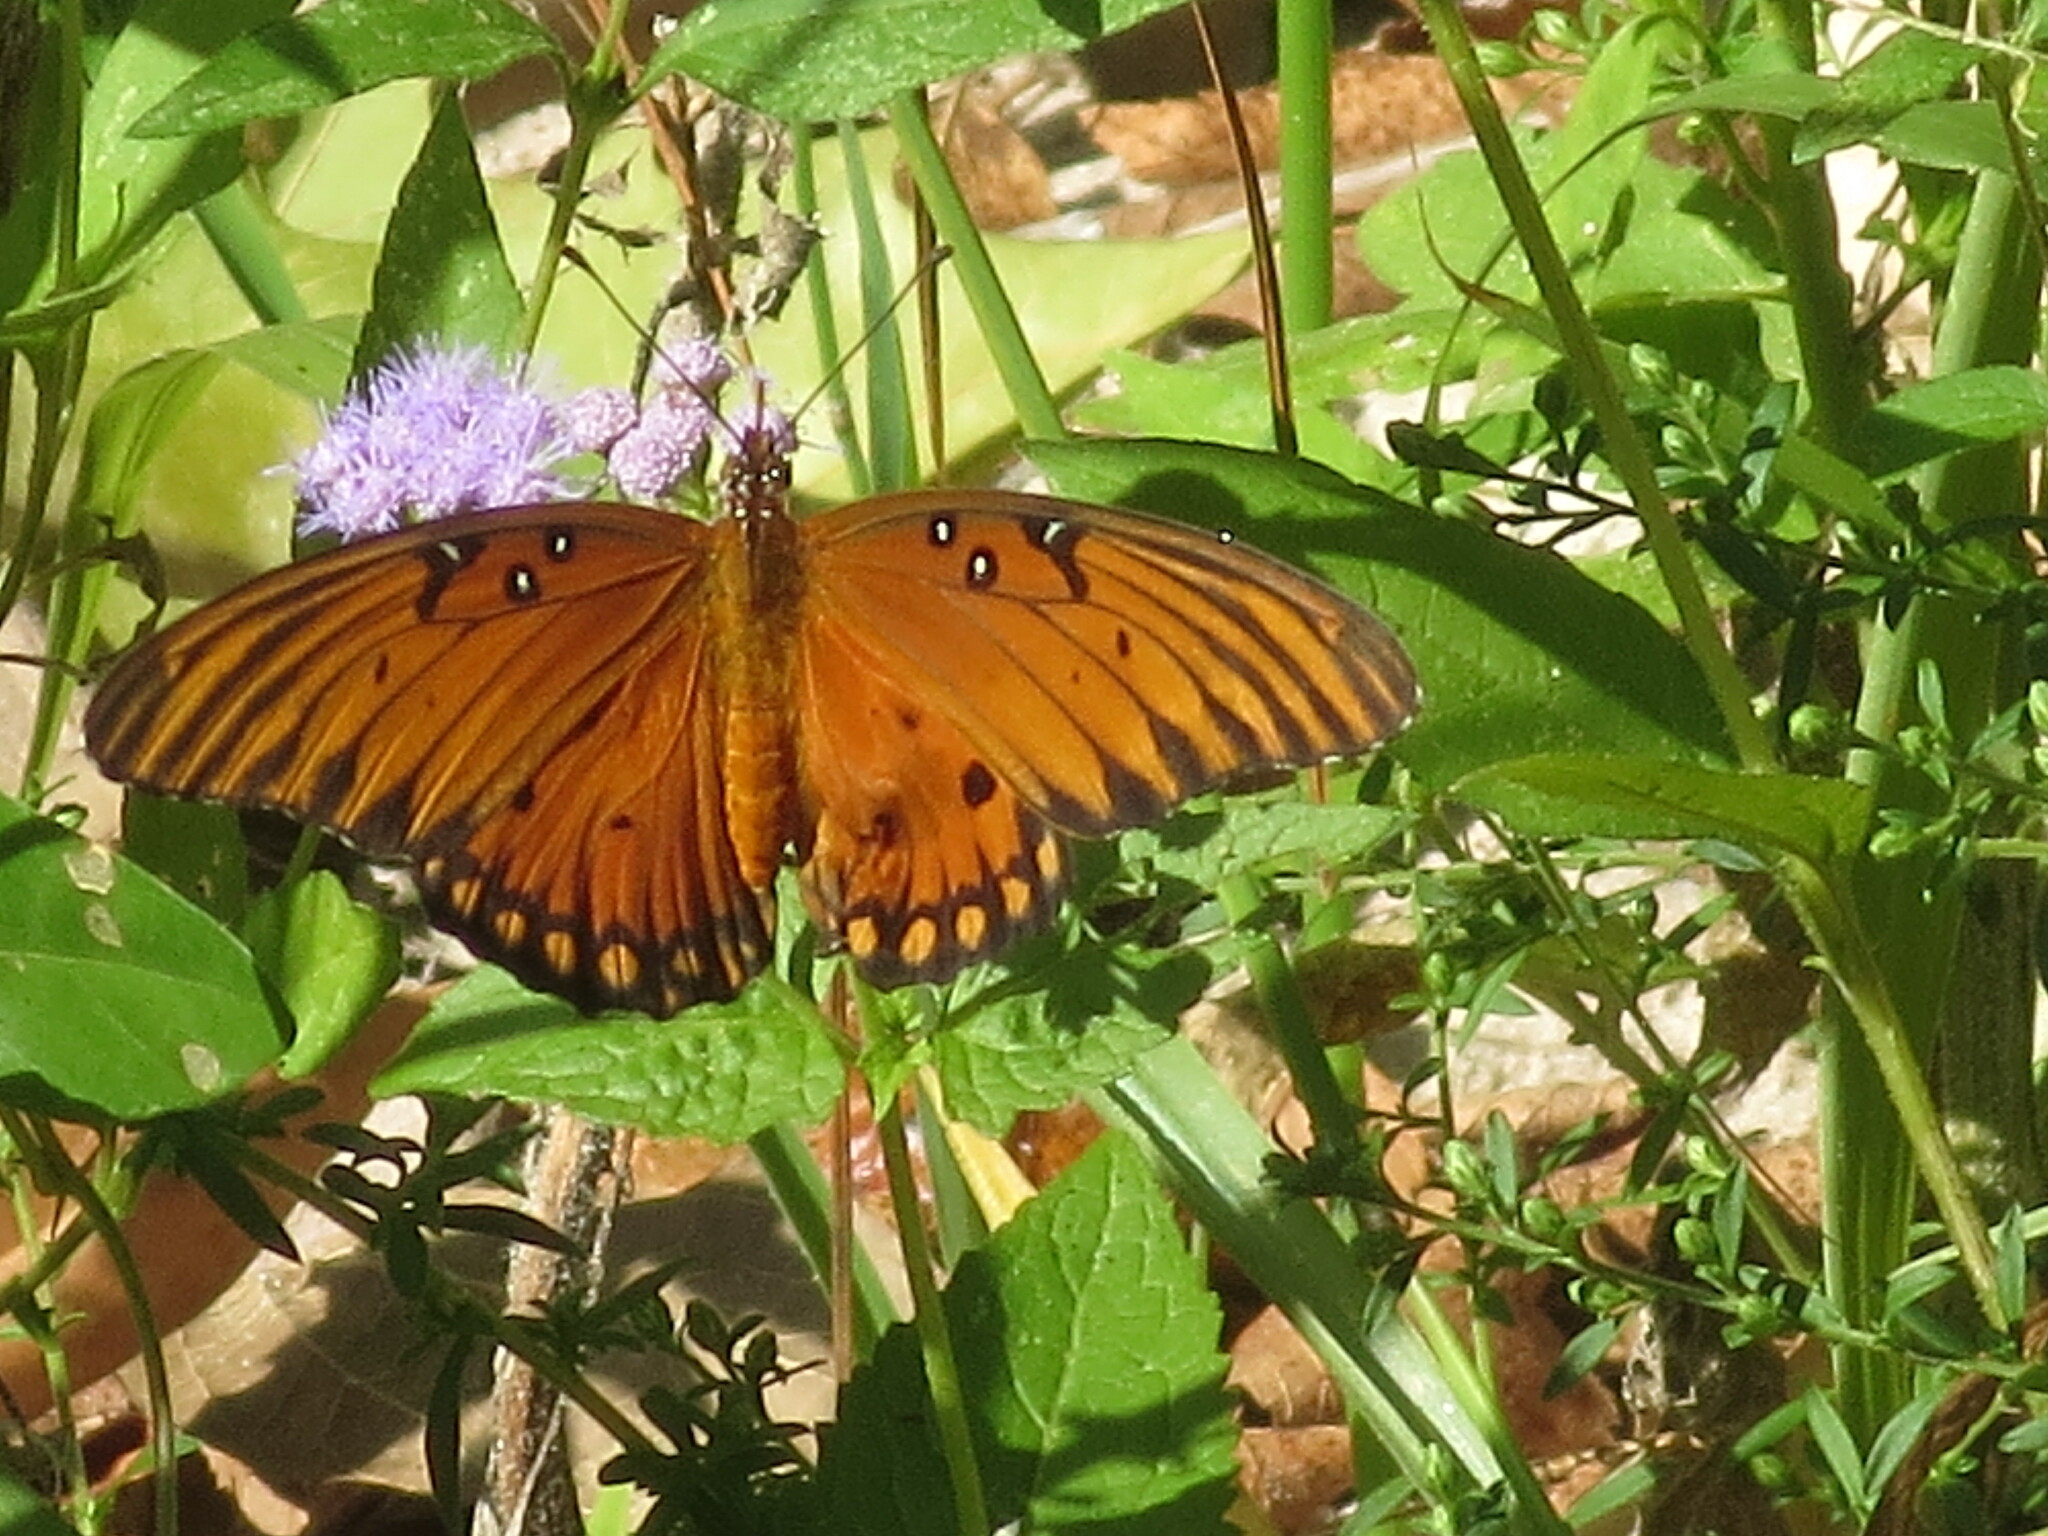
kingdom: Animalia
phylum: Arthropoda
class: Insecta
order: Lepidoptera
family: Nymphalidae
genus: Dione
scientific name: Dione vanillae
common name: Gulf fritillary
